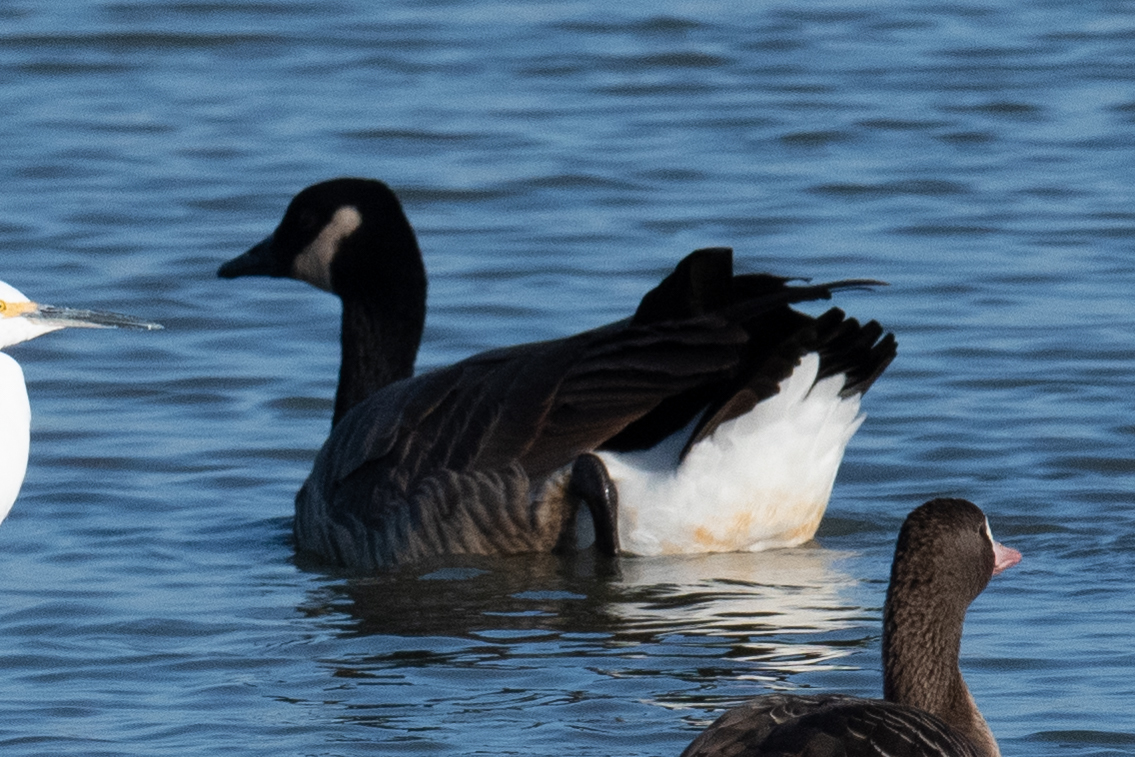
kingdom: Animalia
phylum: Chordata
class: Aves
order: Anseriformes
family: Anatidae
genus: Branta
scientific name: Branta canadensis
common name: Canada goose
